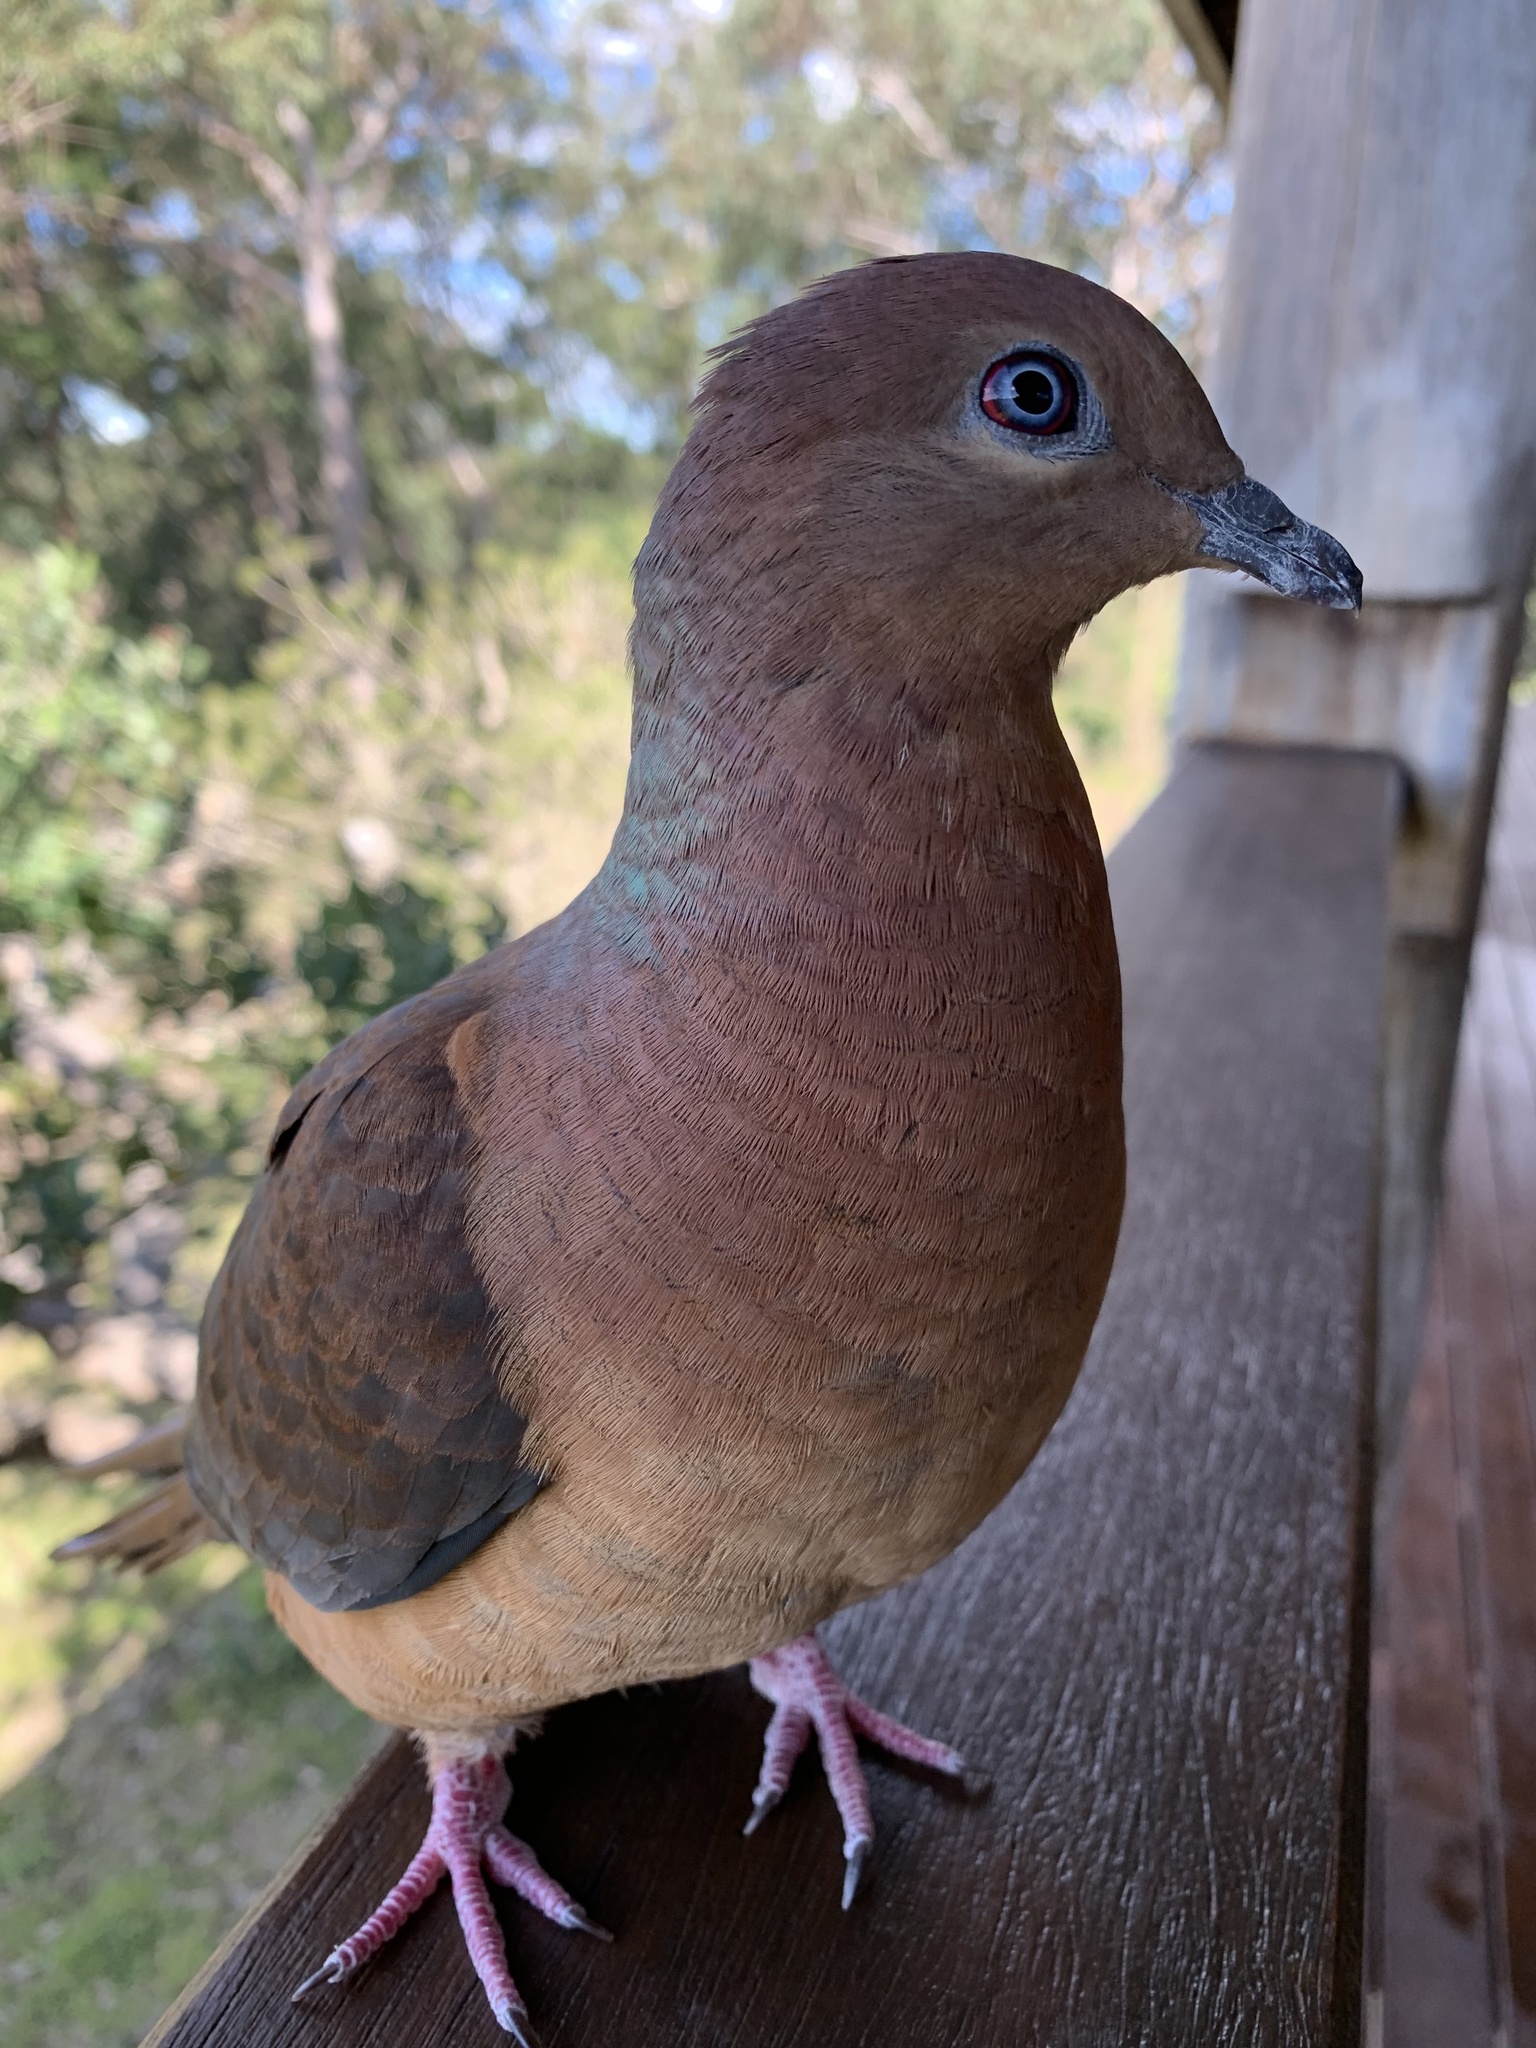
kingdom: Animalia
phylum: Chordata
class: Aves
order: Columbiformes
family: Columbidae
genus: Macropygia
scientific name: Macropygia phasianella
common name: Brown cuckoo-dove
